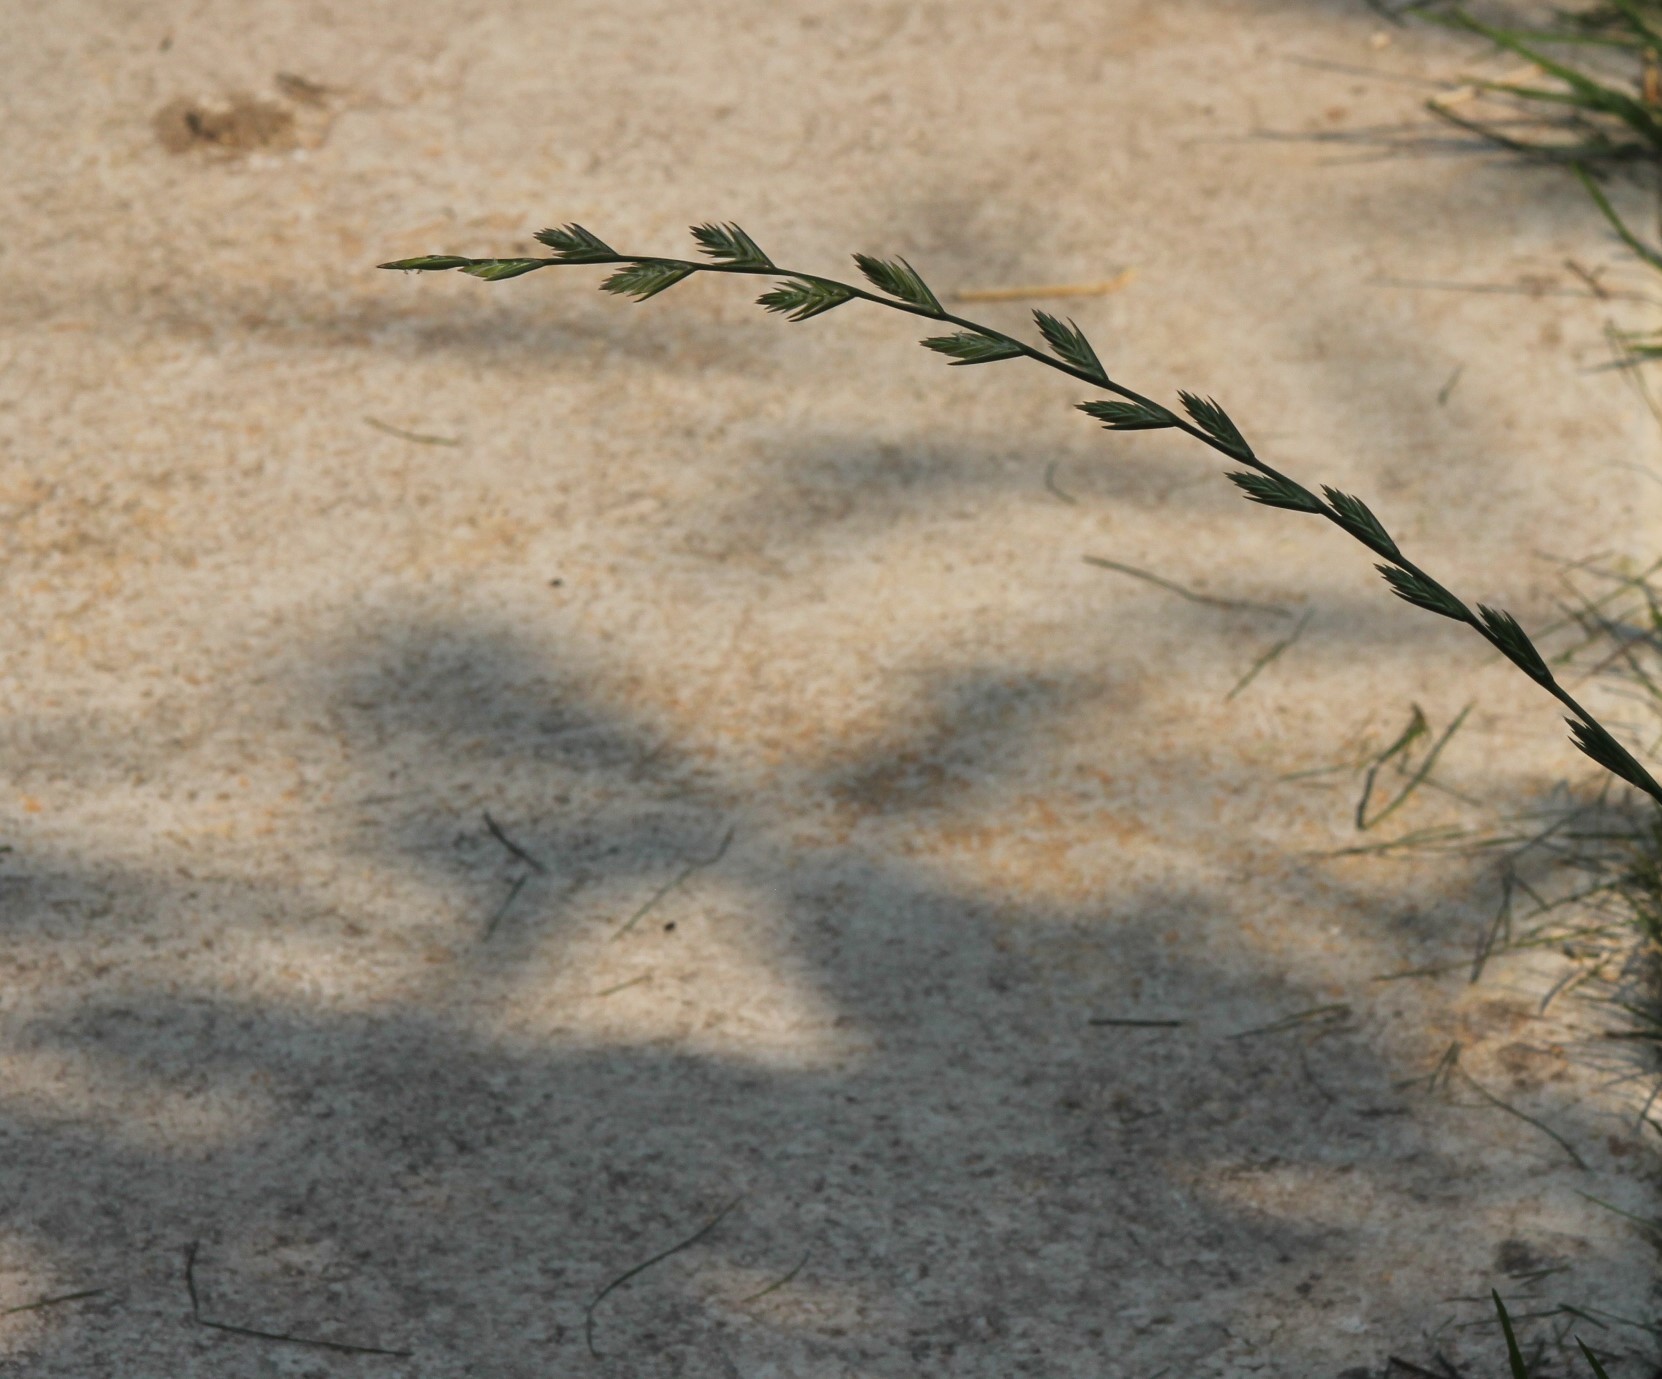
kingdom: Plantae
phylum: Tracheophyta
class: Liliopsida
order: Poales
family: Poaceae
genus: Lolium
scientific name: Lolium perenne
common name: Perennial ryegrass
